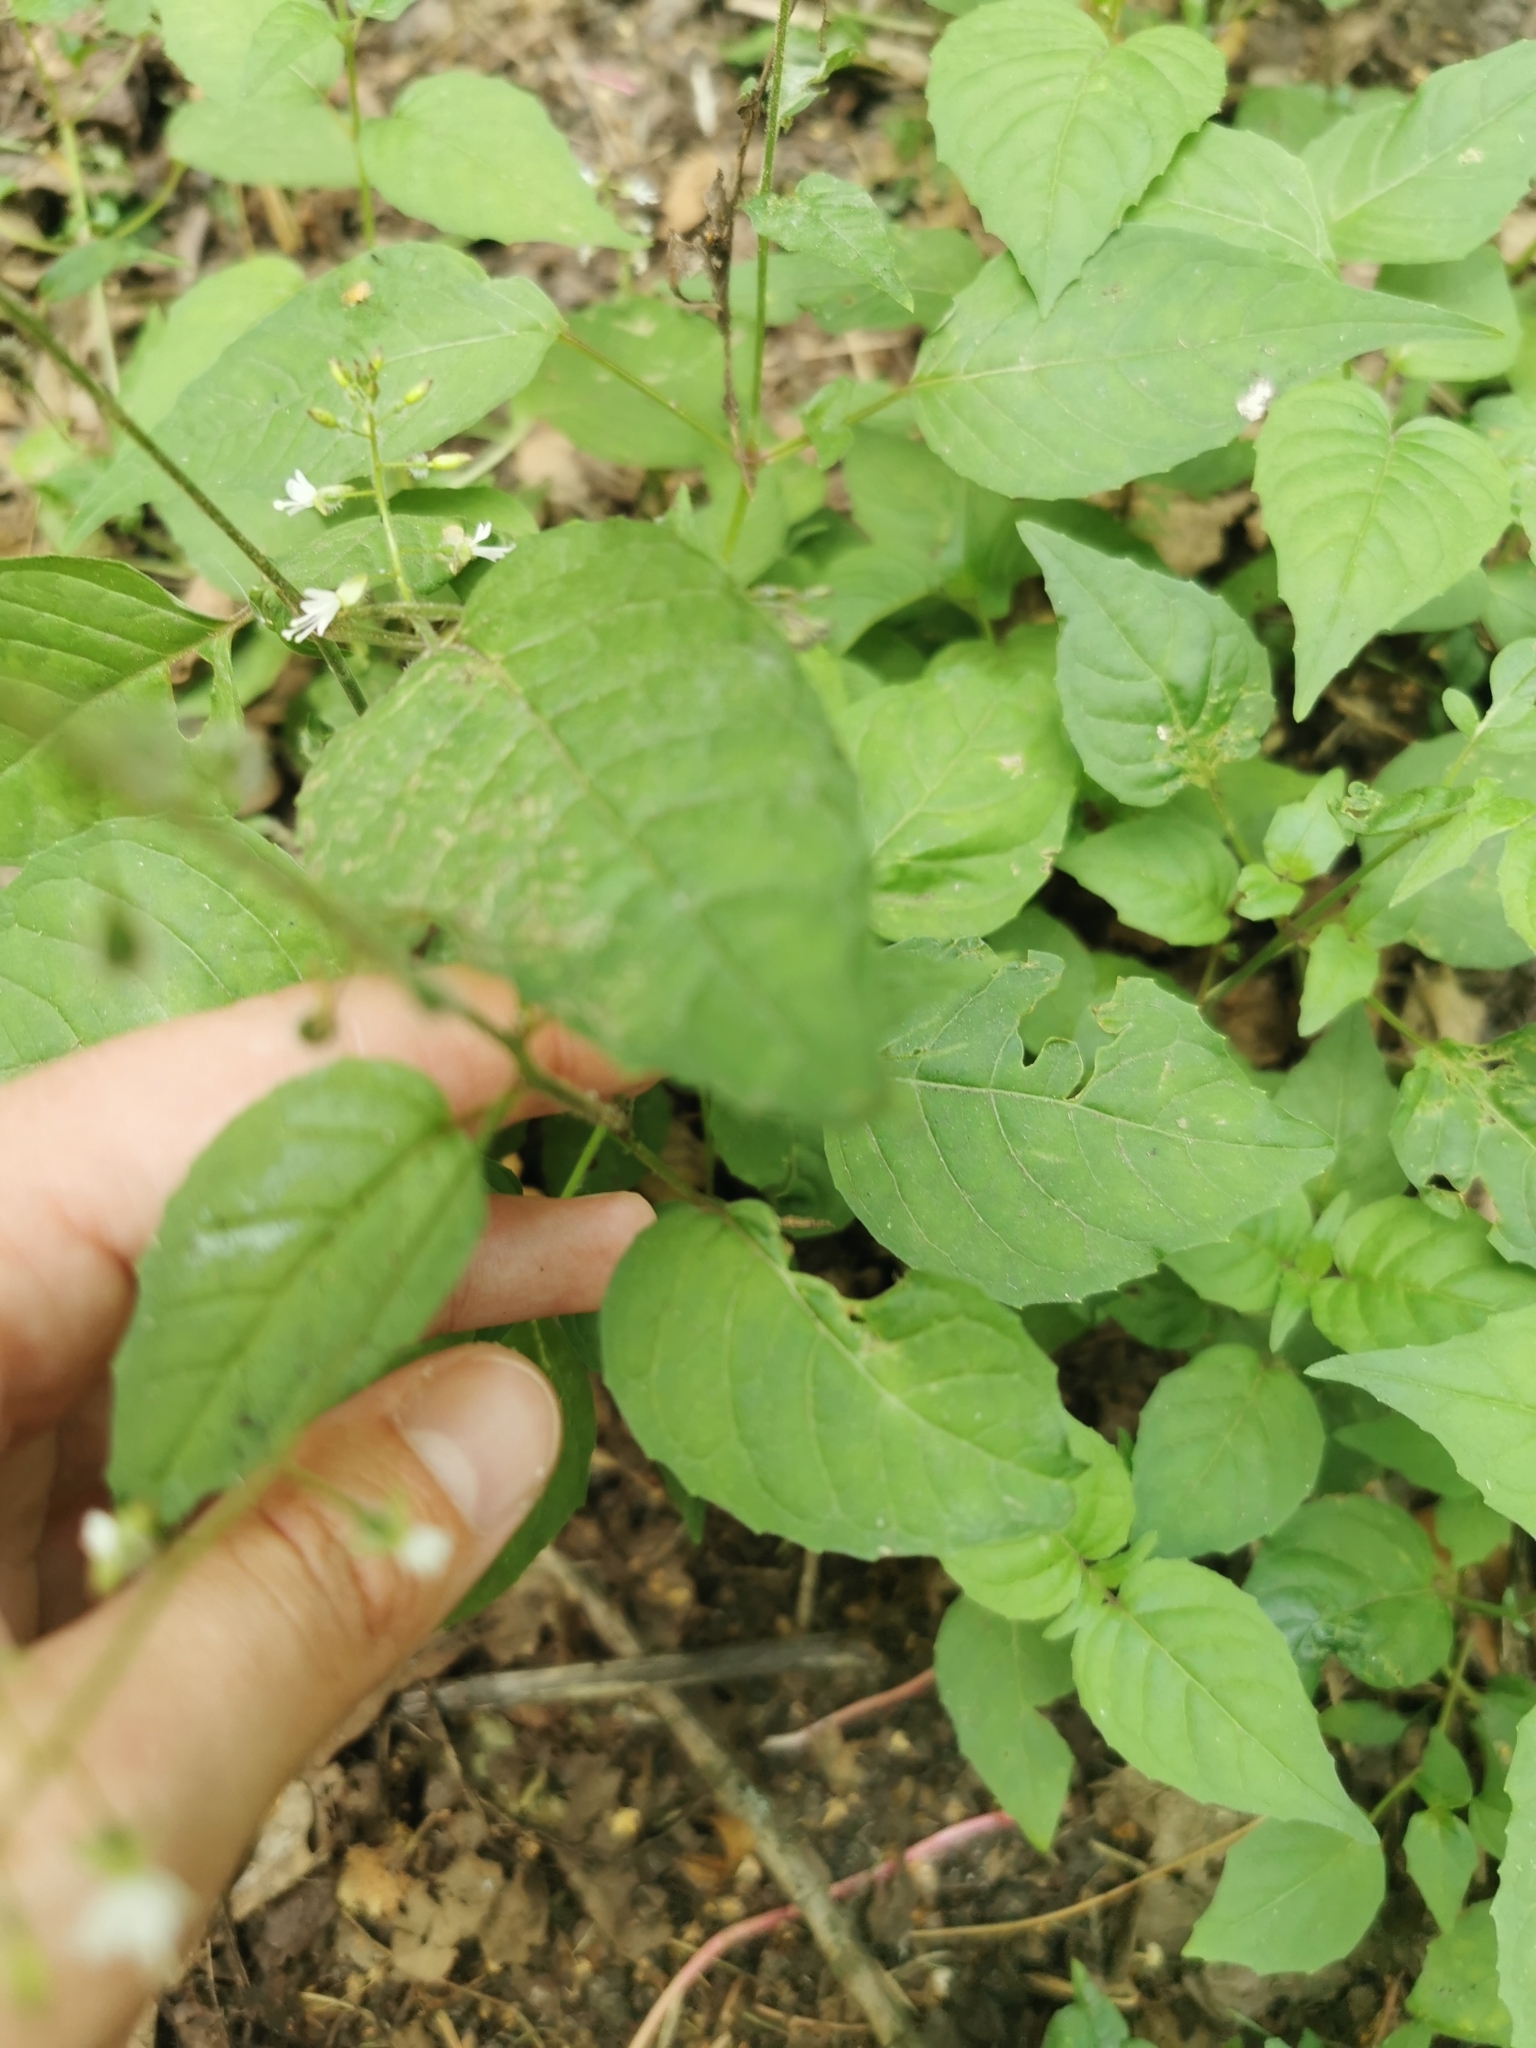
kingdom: Plantae
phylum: Tracheophyta
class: Magnoliopsida
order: Myrtales
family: Onagraceae
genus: Circaea
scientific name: Circaea lutetiana
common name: Enchanter's-nightshade
